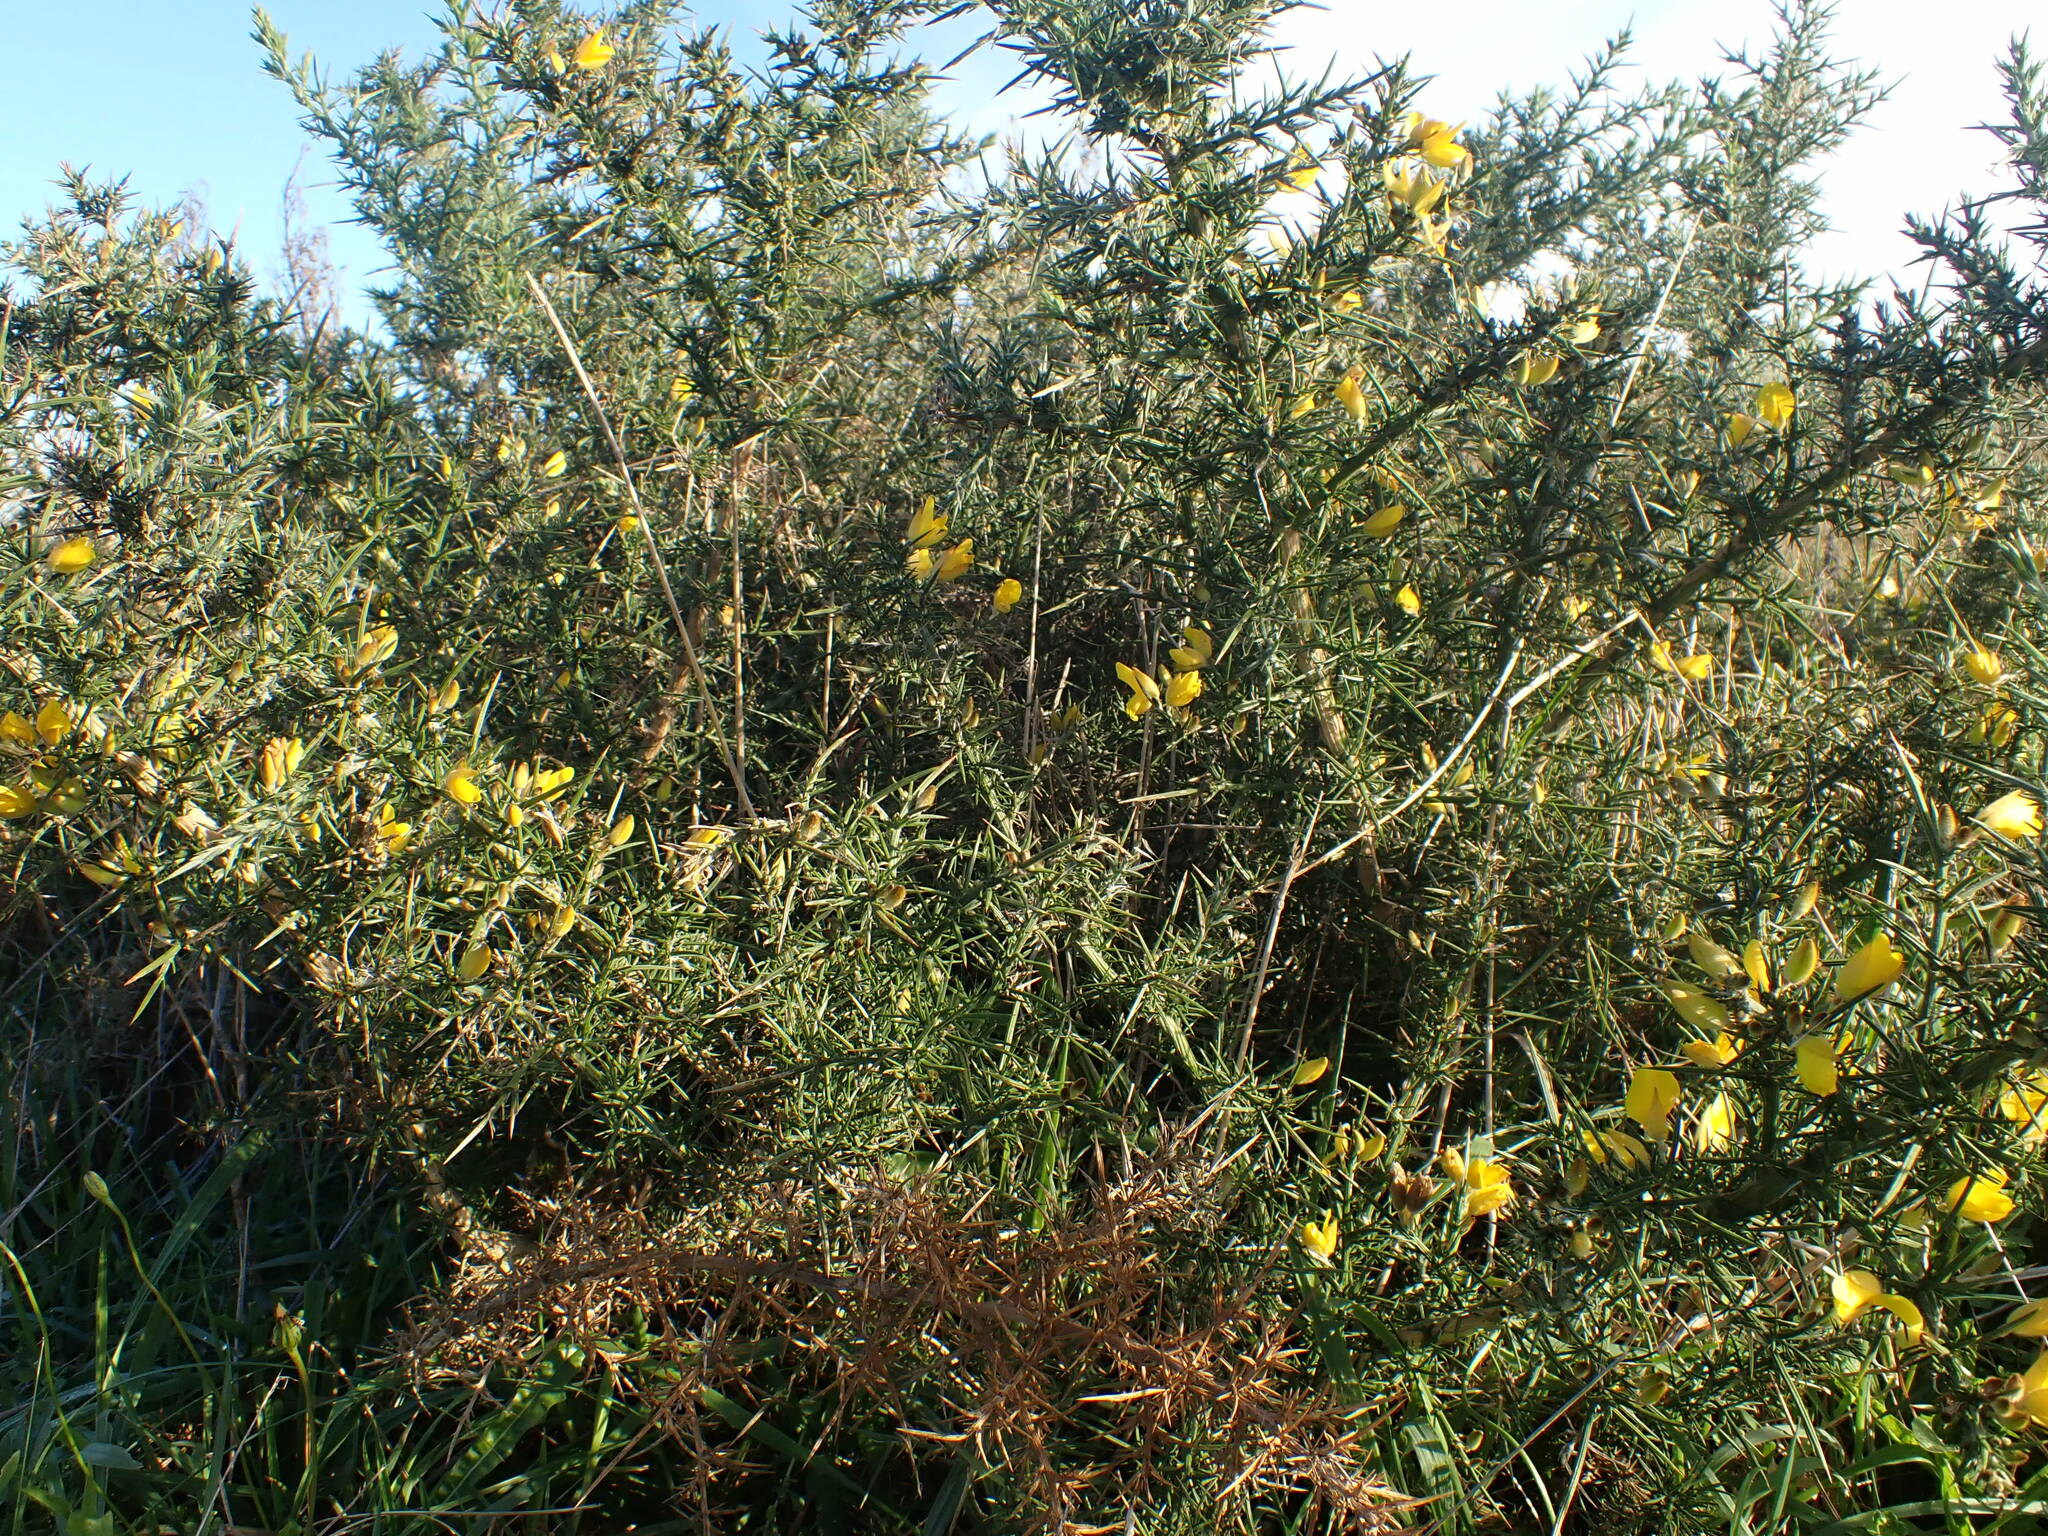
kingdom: Plantae
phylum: Tracheophyta
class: Magnoliopsida
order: Fabales
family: Fabaceae
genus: Ulex
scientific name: Ulex europaeus
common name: Common gorse
